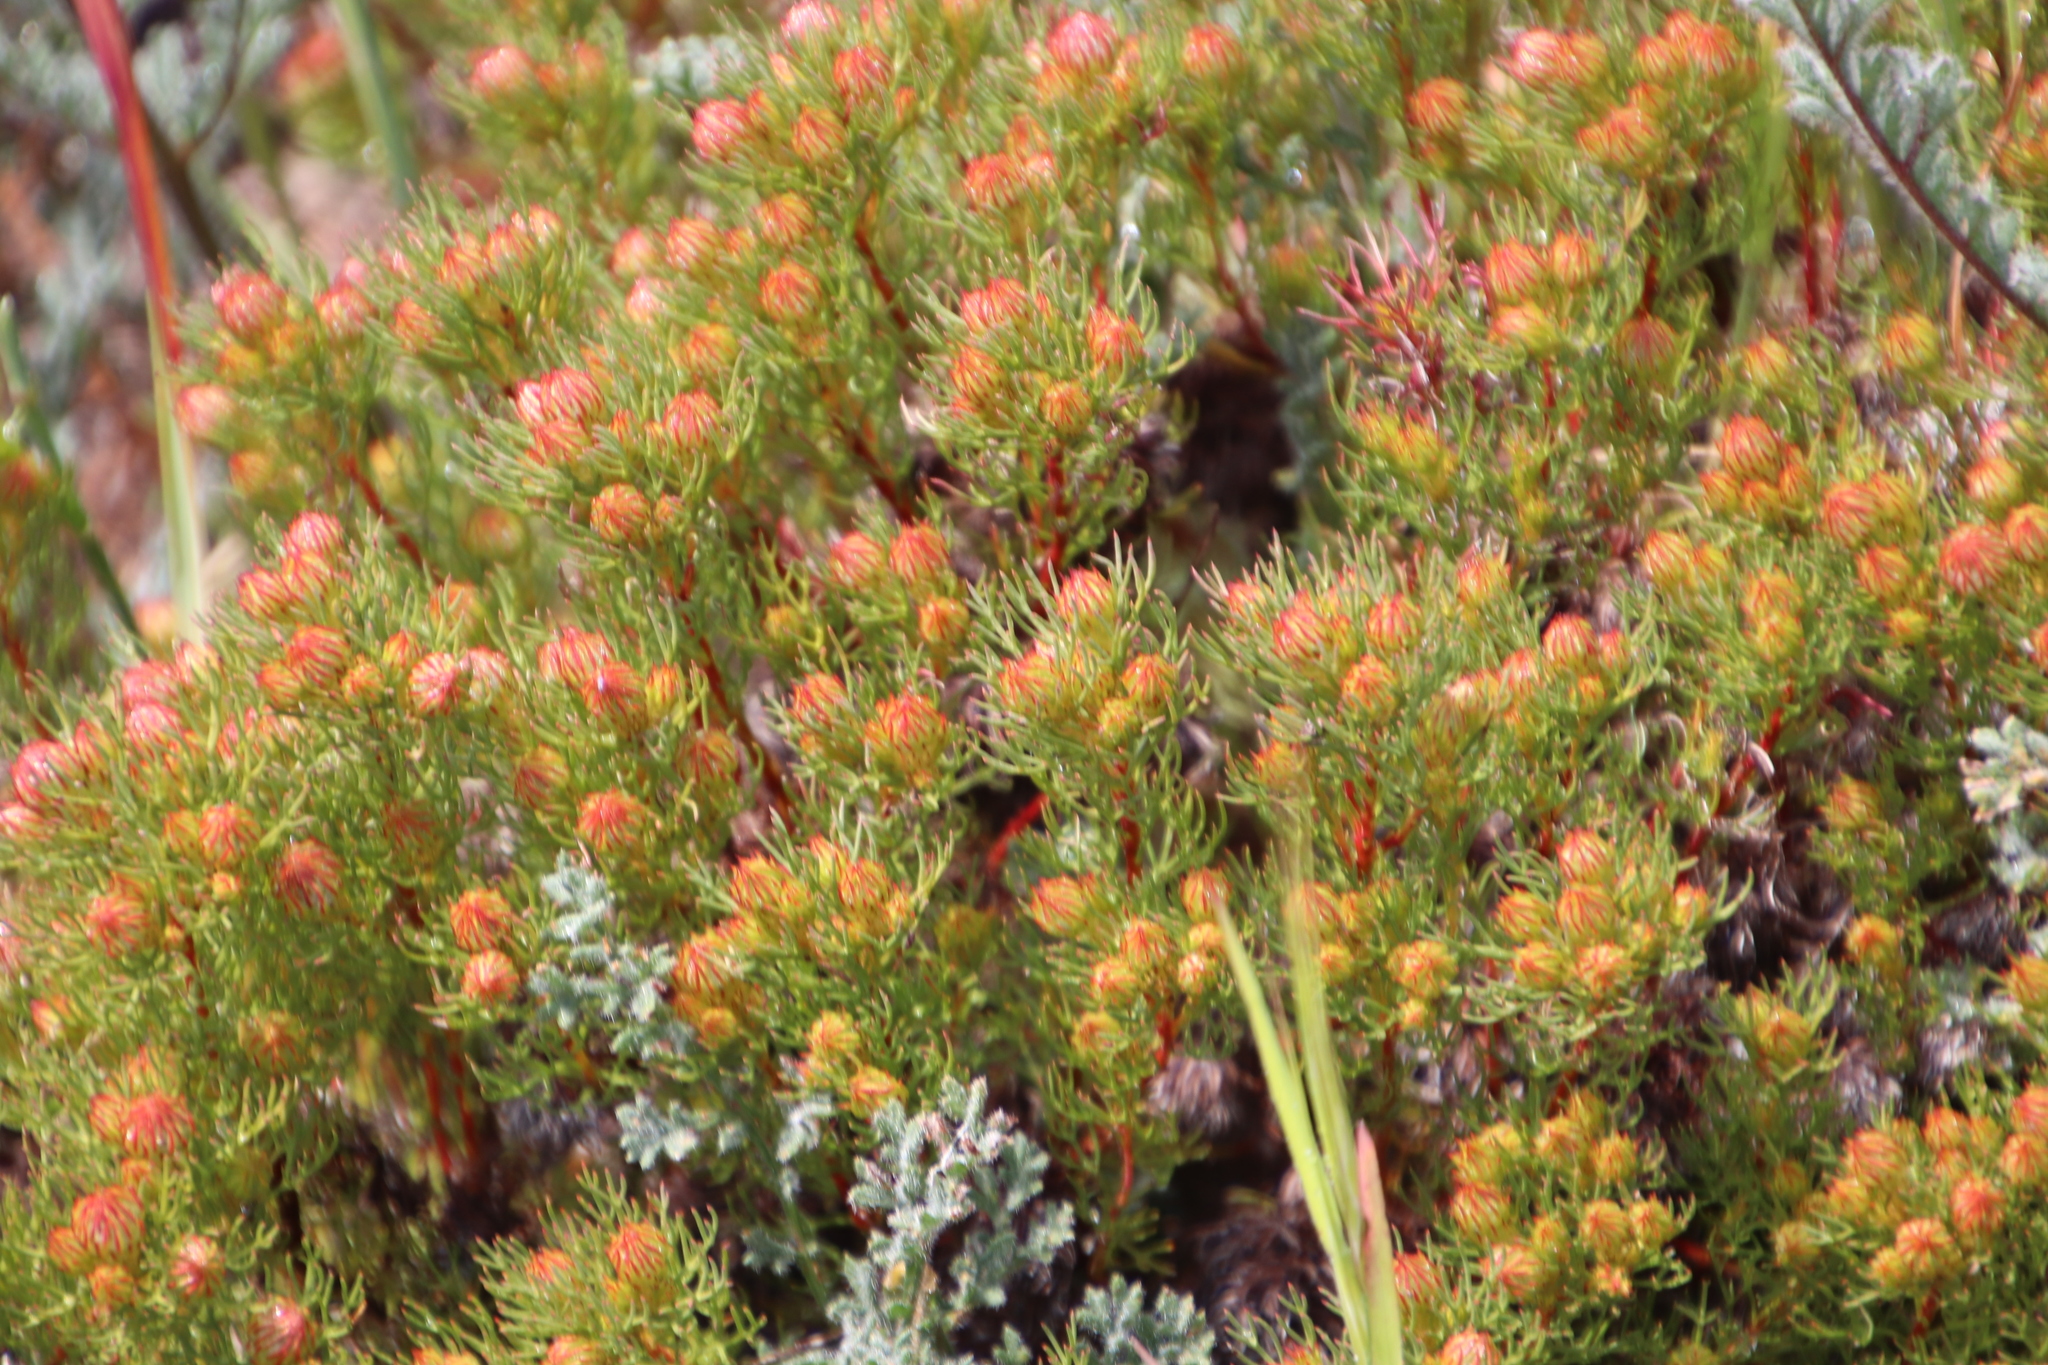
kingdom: Plantae
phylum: Tracheophyta
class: Magnoliopsida
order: Proteales
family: Proteaceae
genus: Serruria
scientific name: Serruria aemula
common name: Strawberry spiderhead
